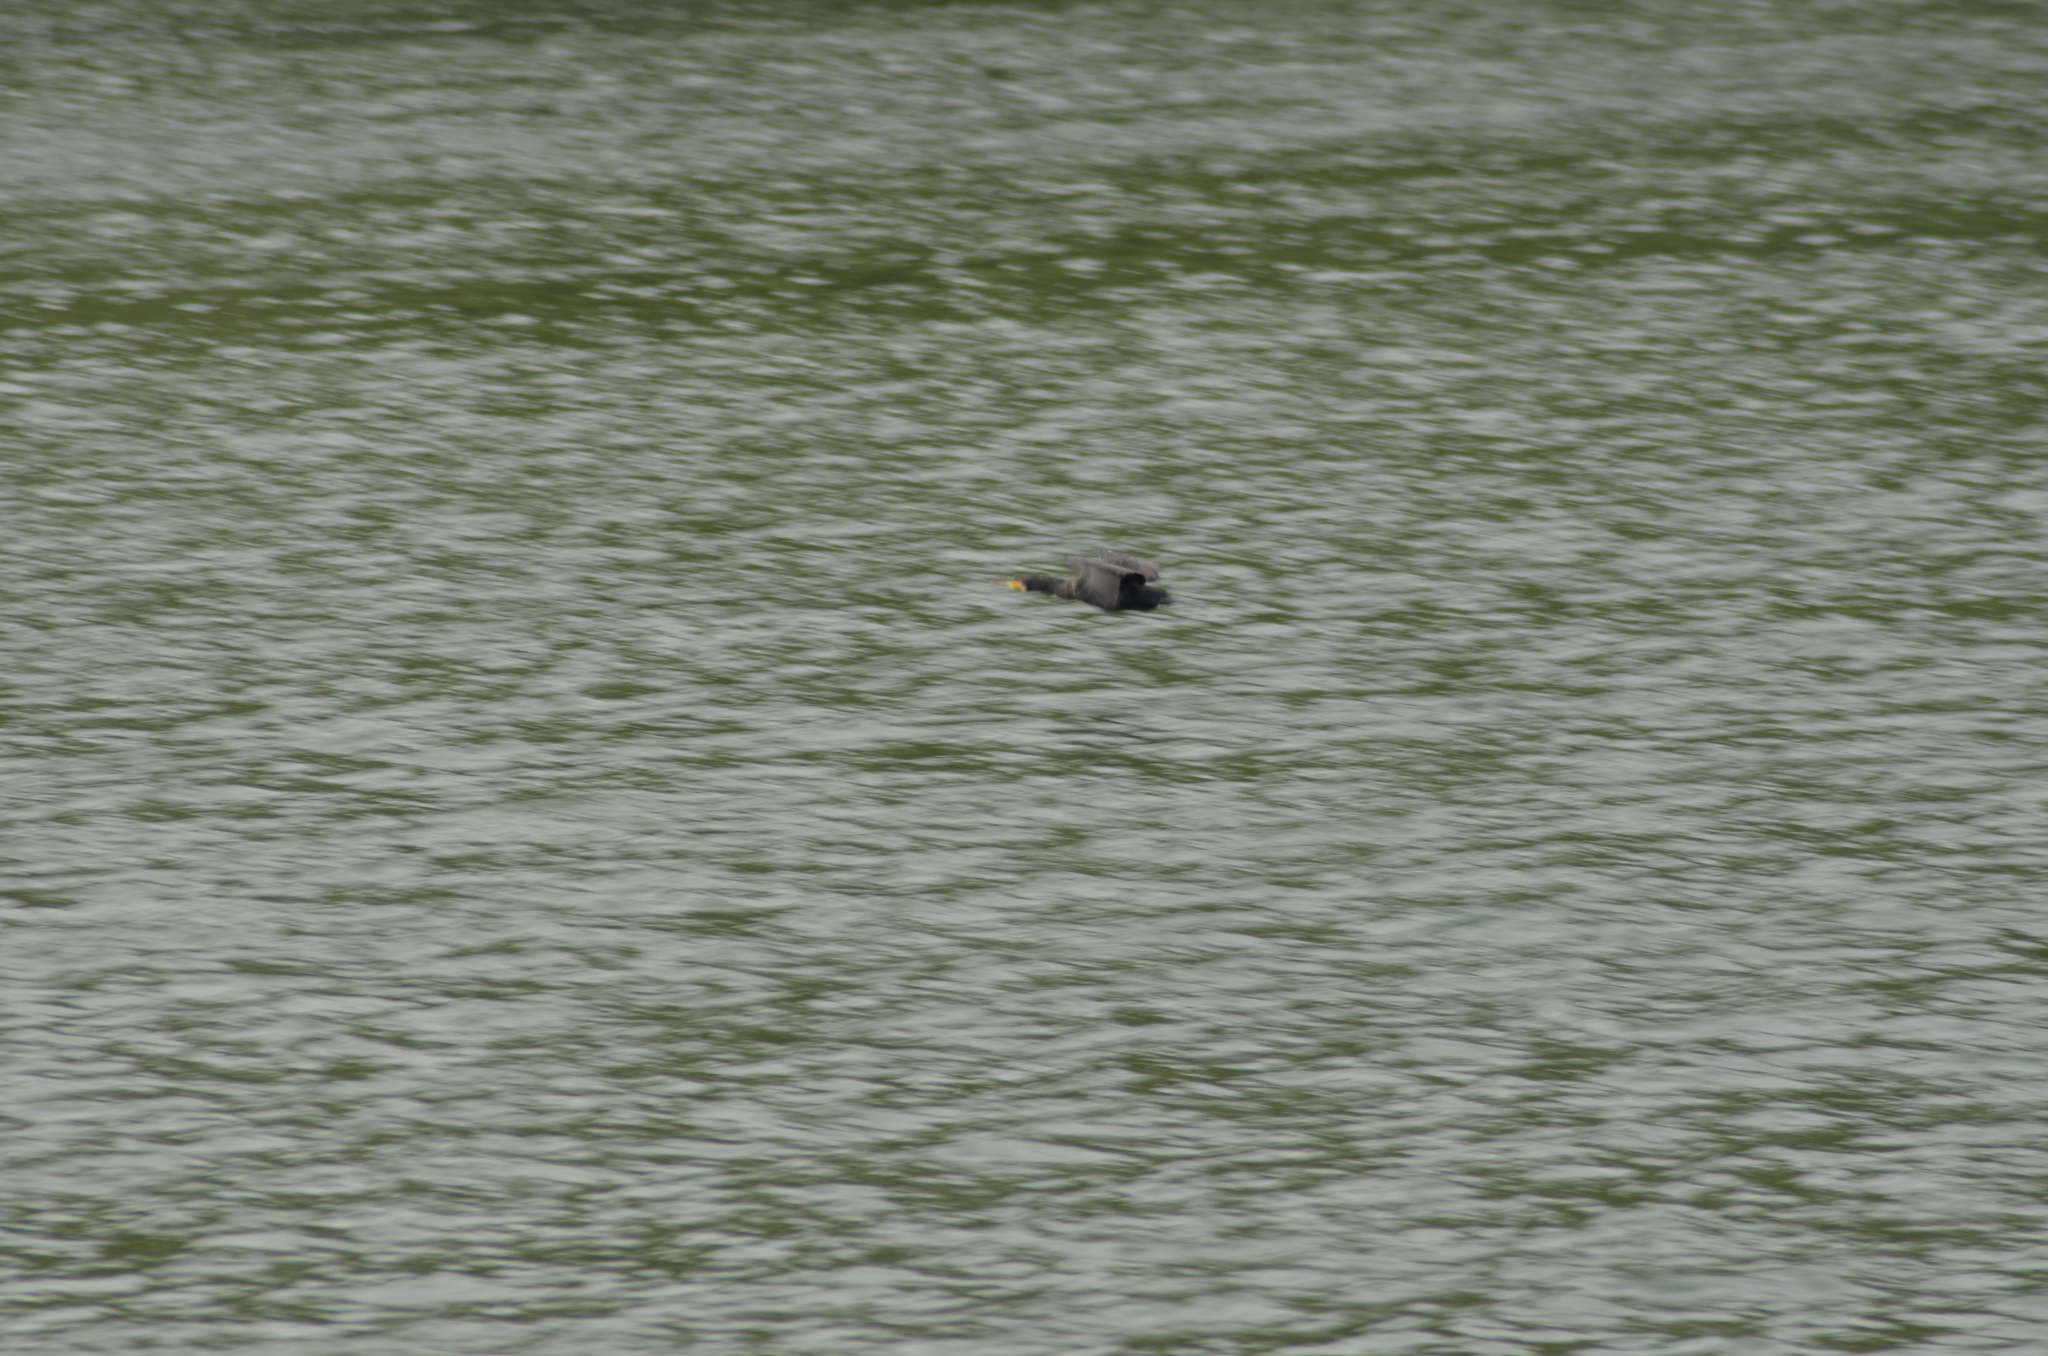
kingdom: Animalia
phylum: Chordata
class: Aves
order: Suliformes
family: Phalacrocoracidae
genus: Phalacrocorax
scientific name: Phalacrocorax carbo
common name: Great cormorant
